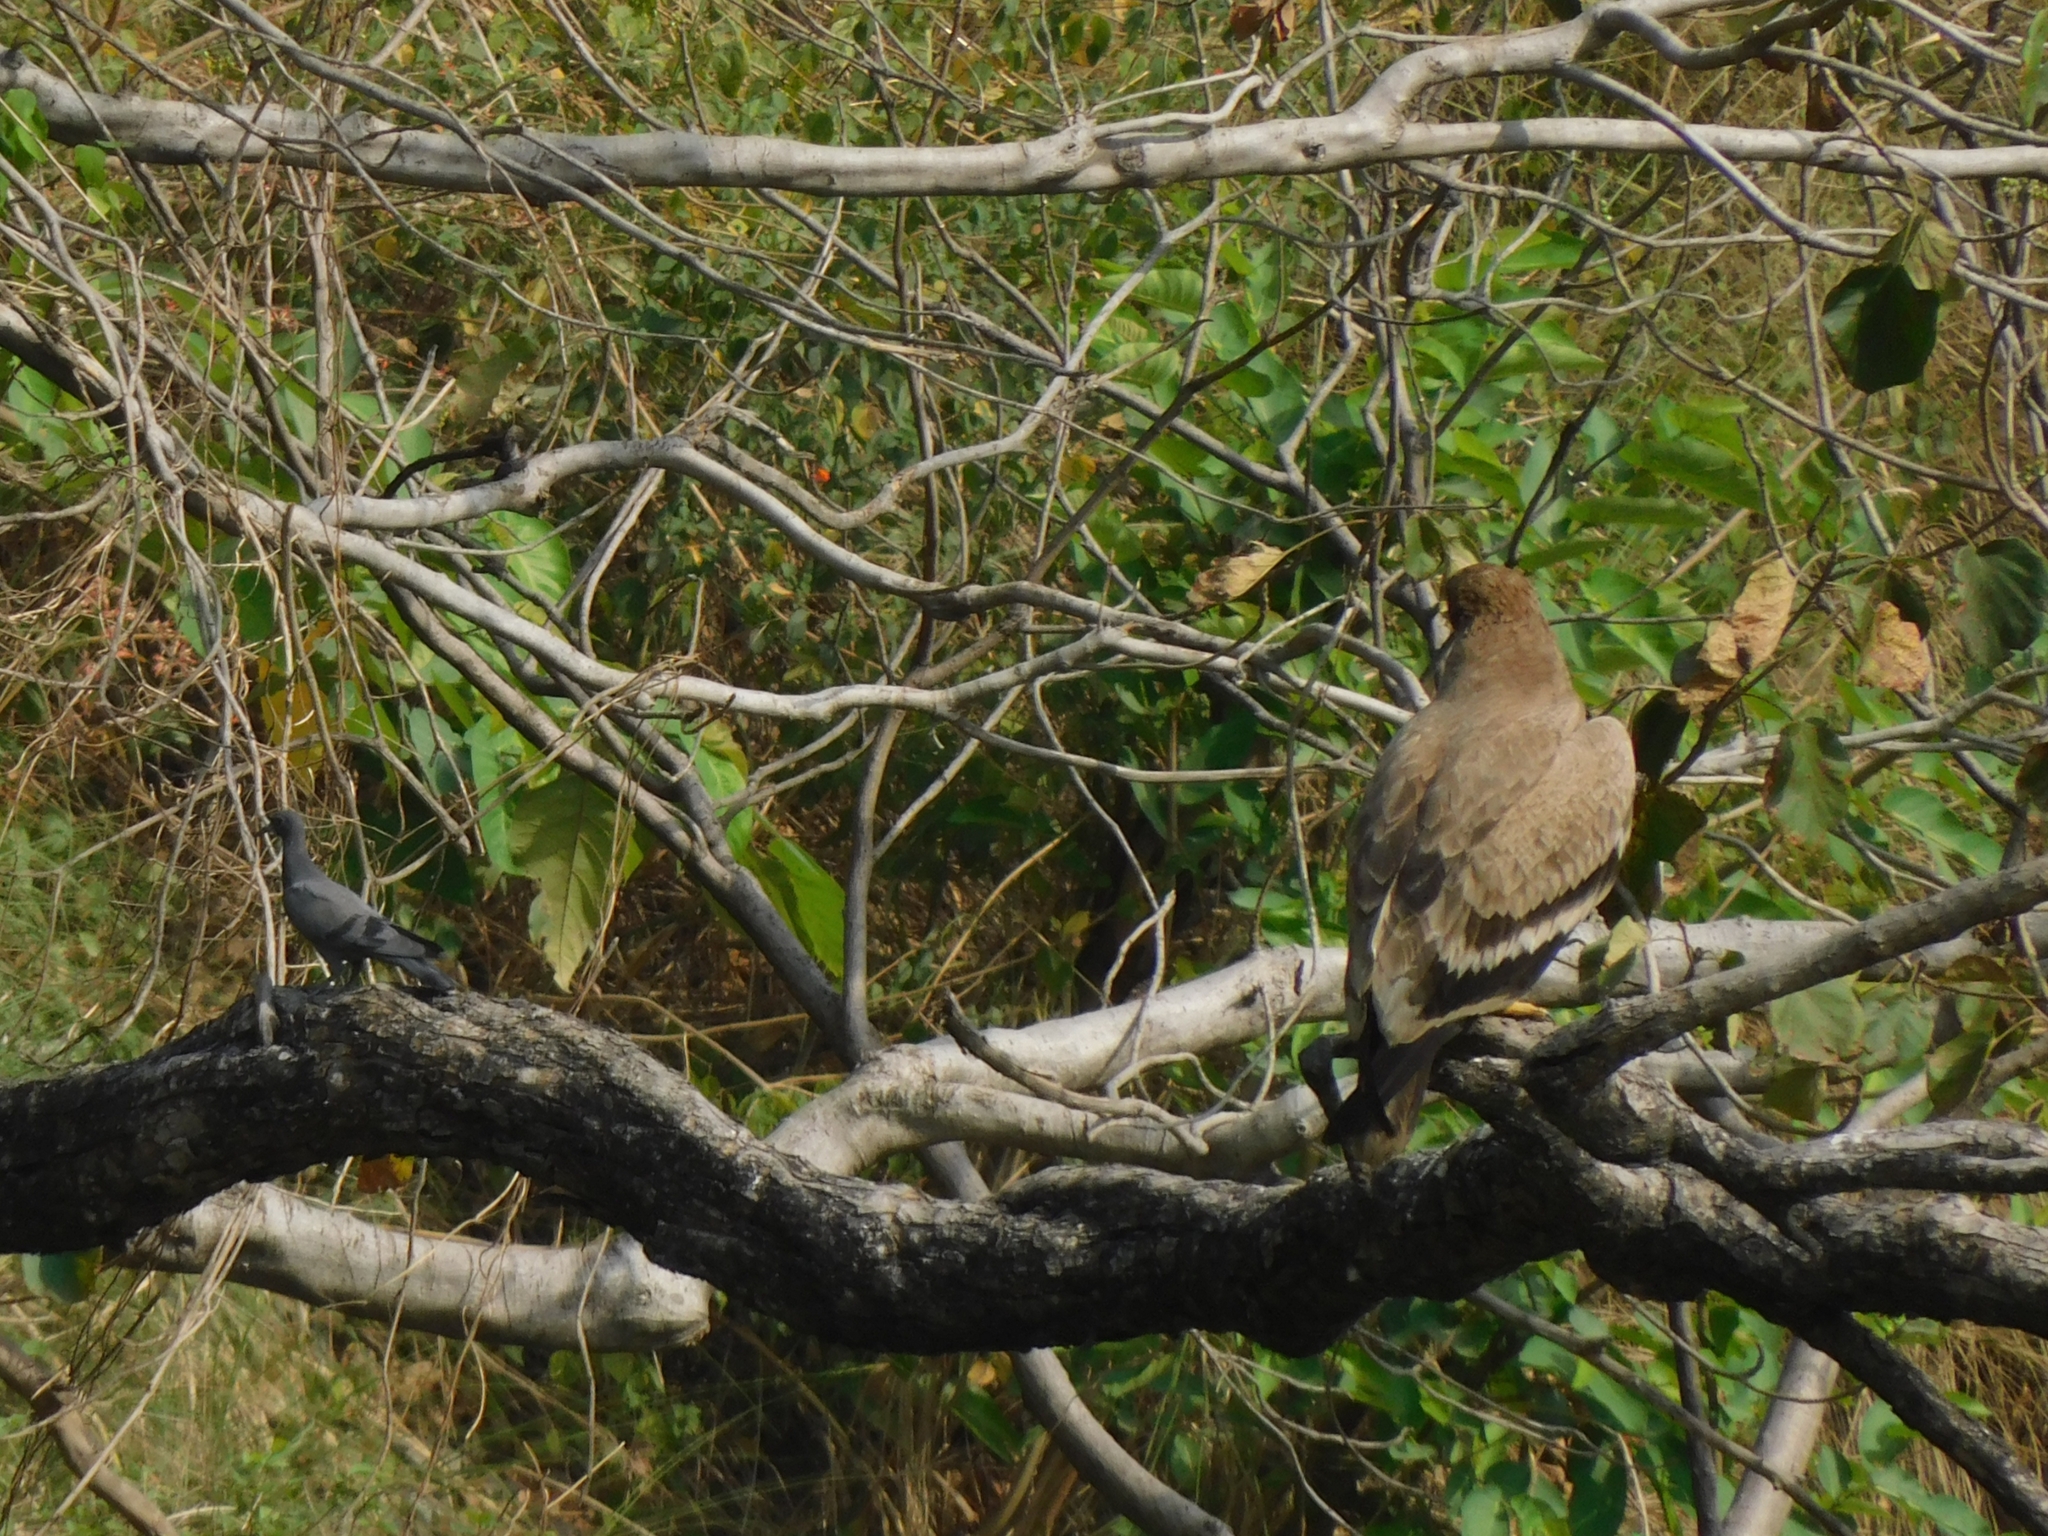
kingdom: Animalia
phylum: Chordata
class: Aves
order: Accipitriformes
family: Accipitridae
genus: Aquila
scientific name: Aquila nipalensis
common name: Steppe eagle
